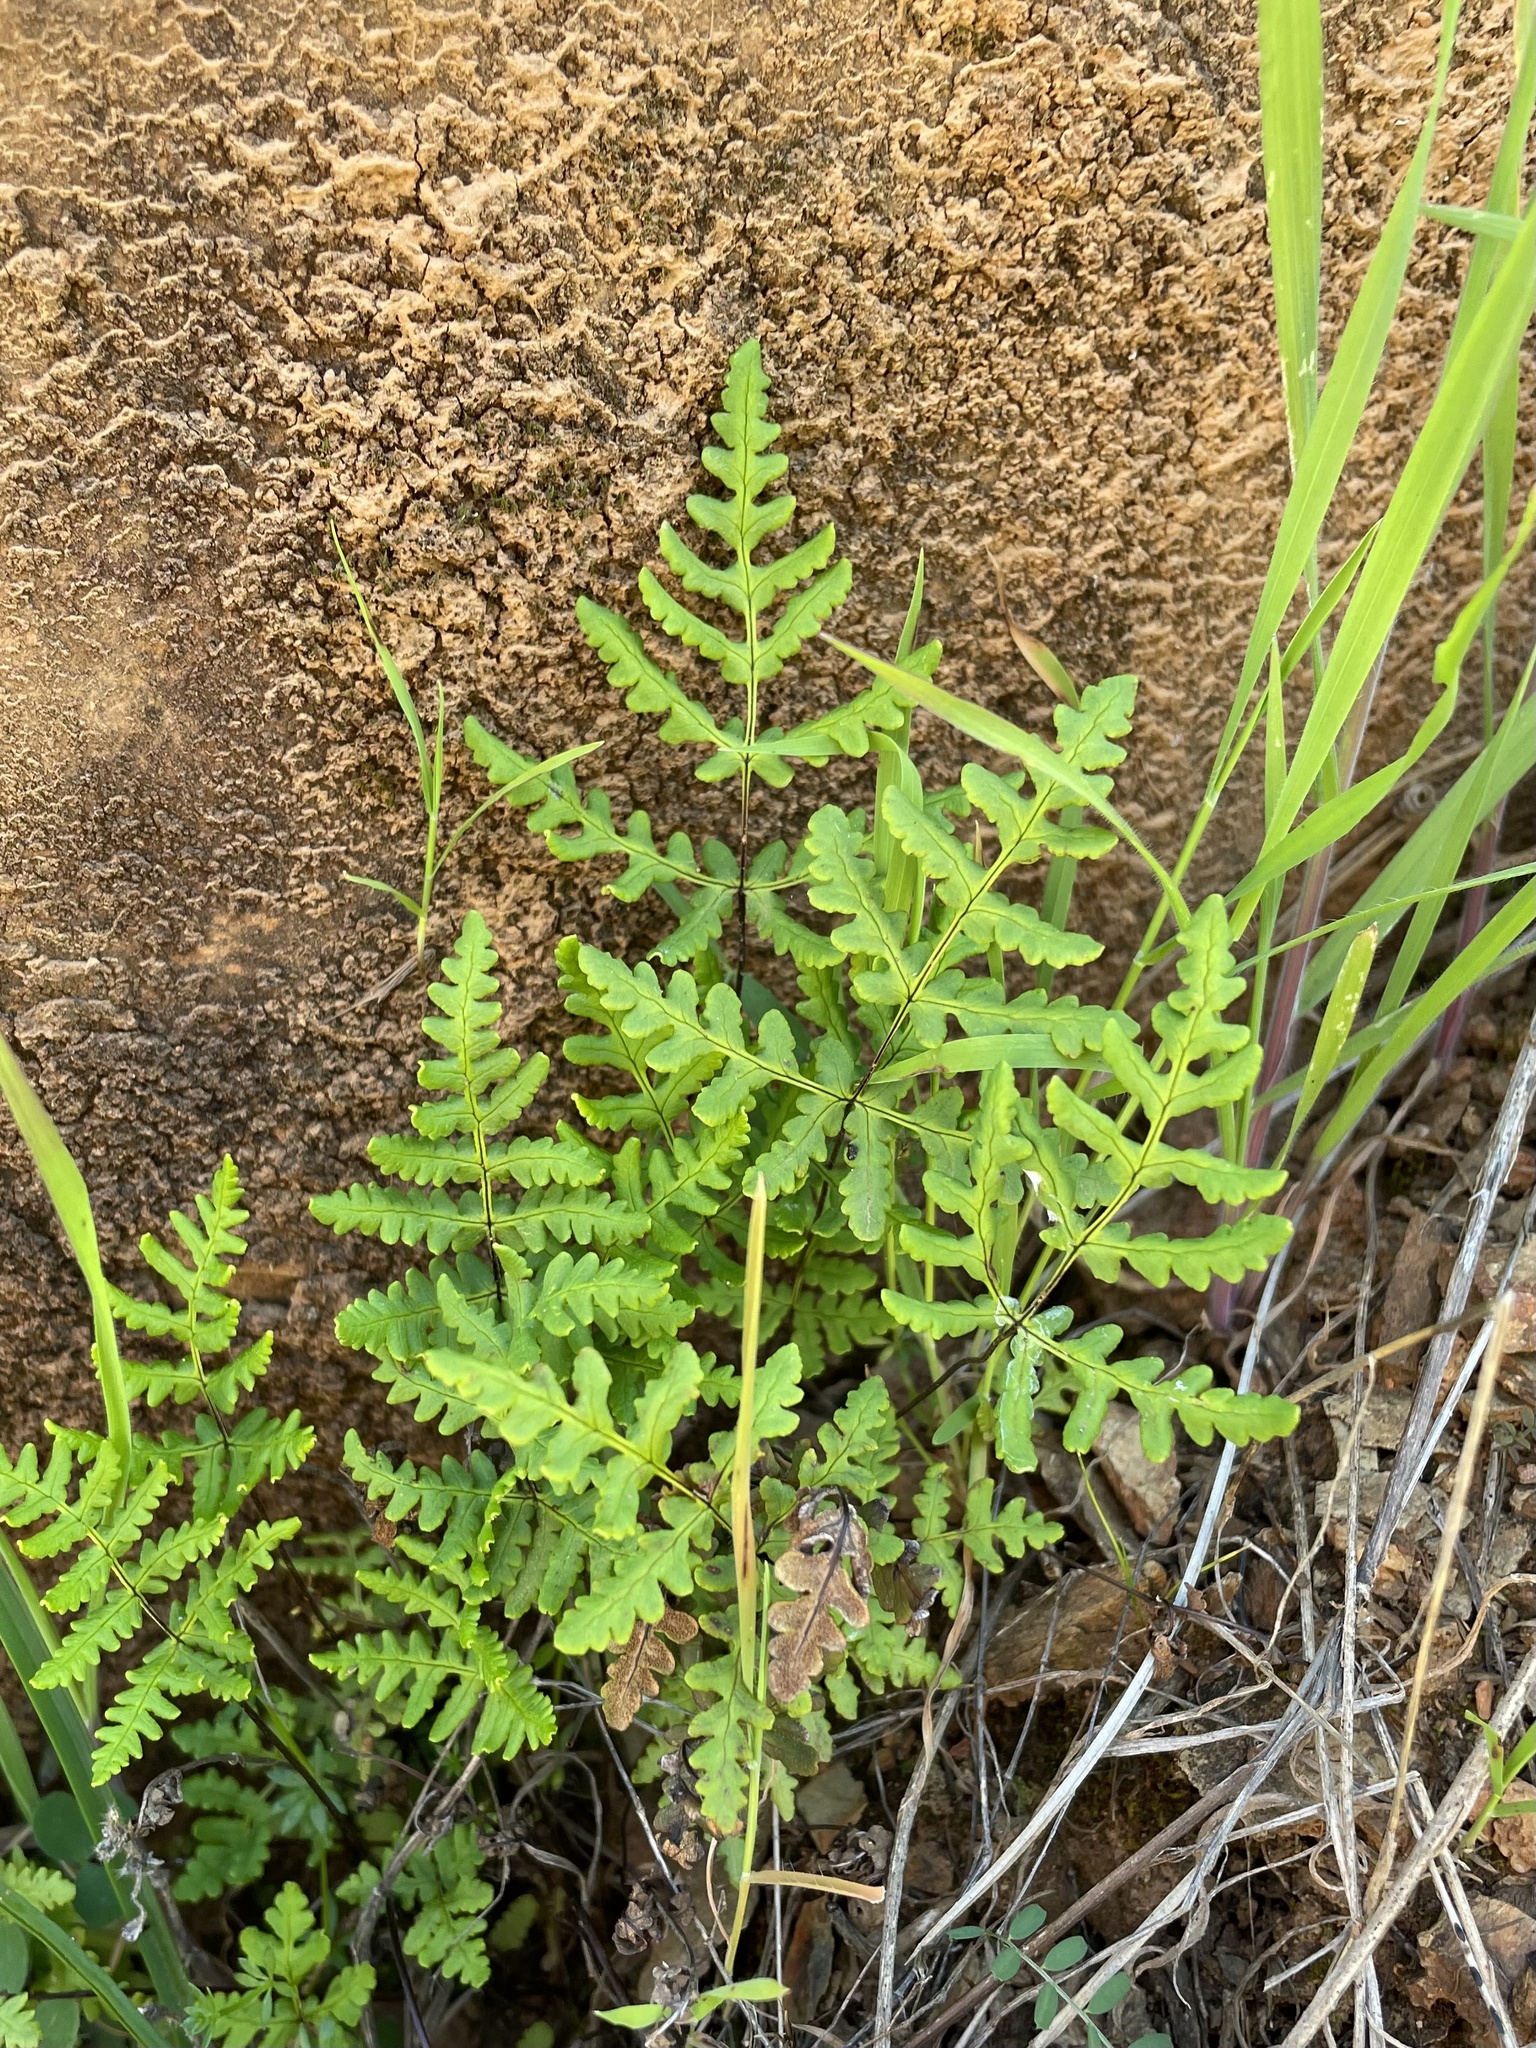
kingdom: Plantae
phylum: Tracheophyta
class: Polypodiopsida
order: Polypodiales
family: Pteridaceae
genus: Pentagramma
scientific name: Pentagramma triangularis
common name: Gold fern
